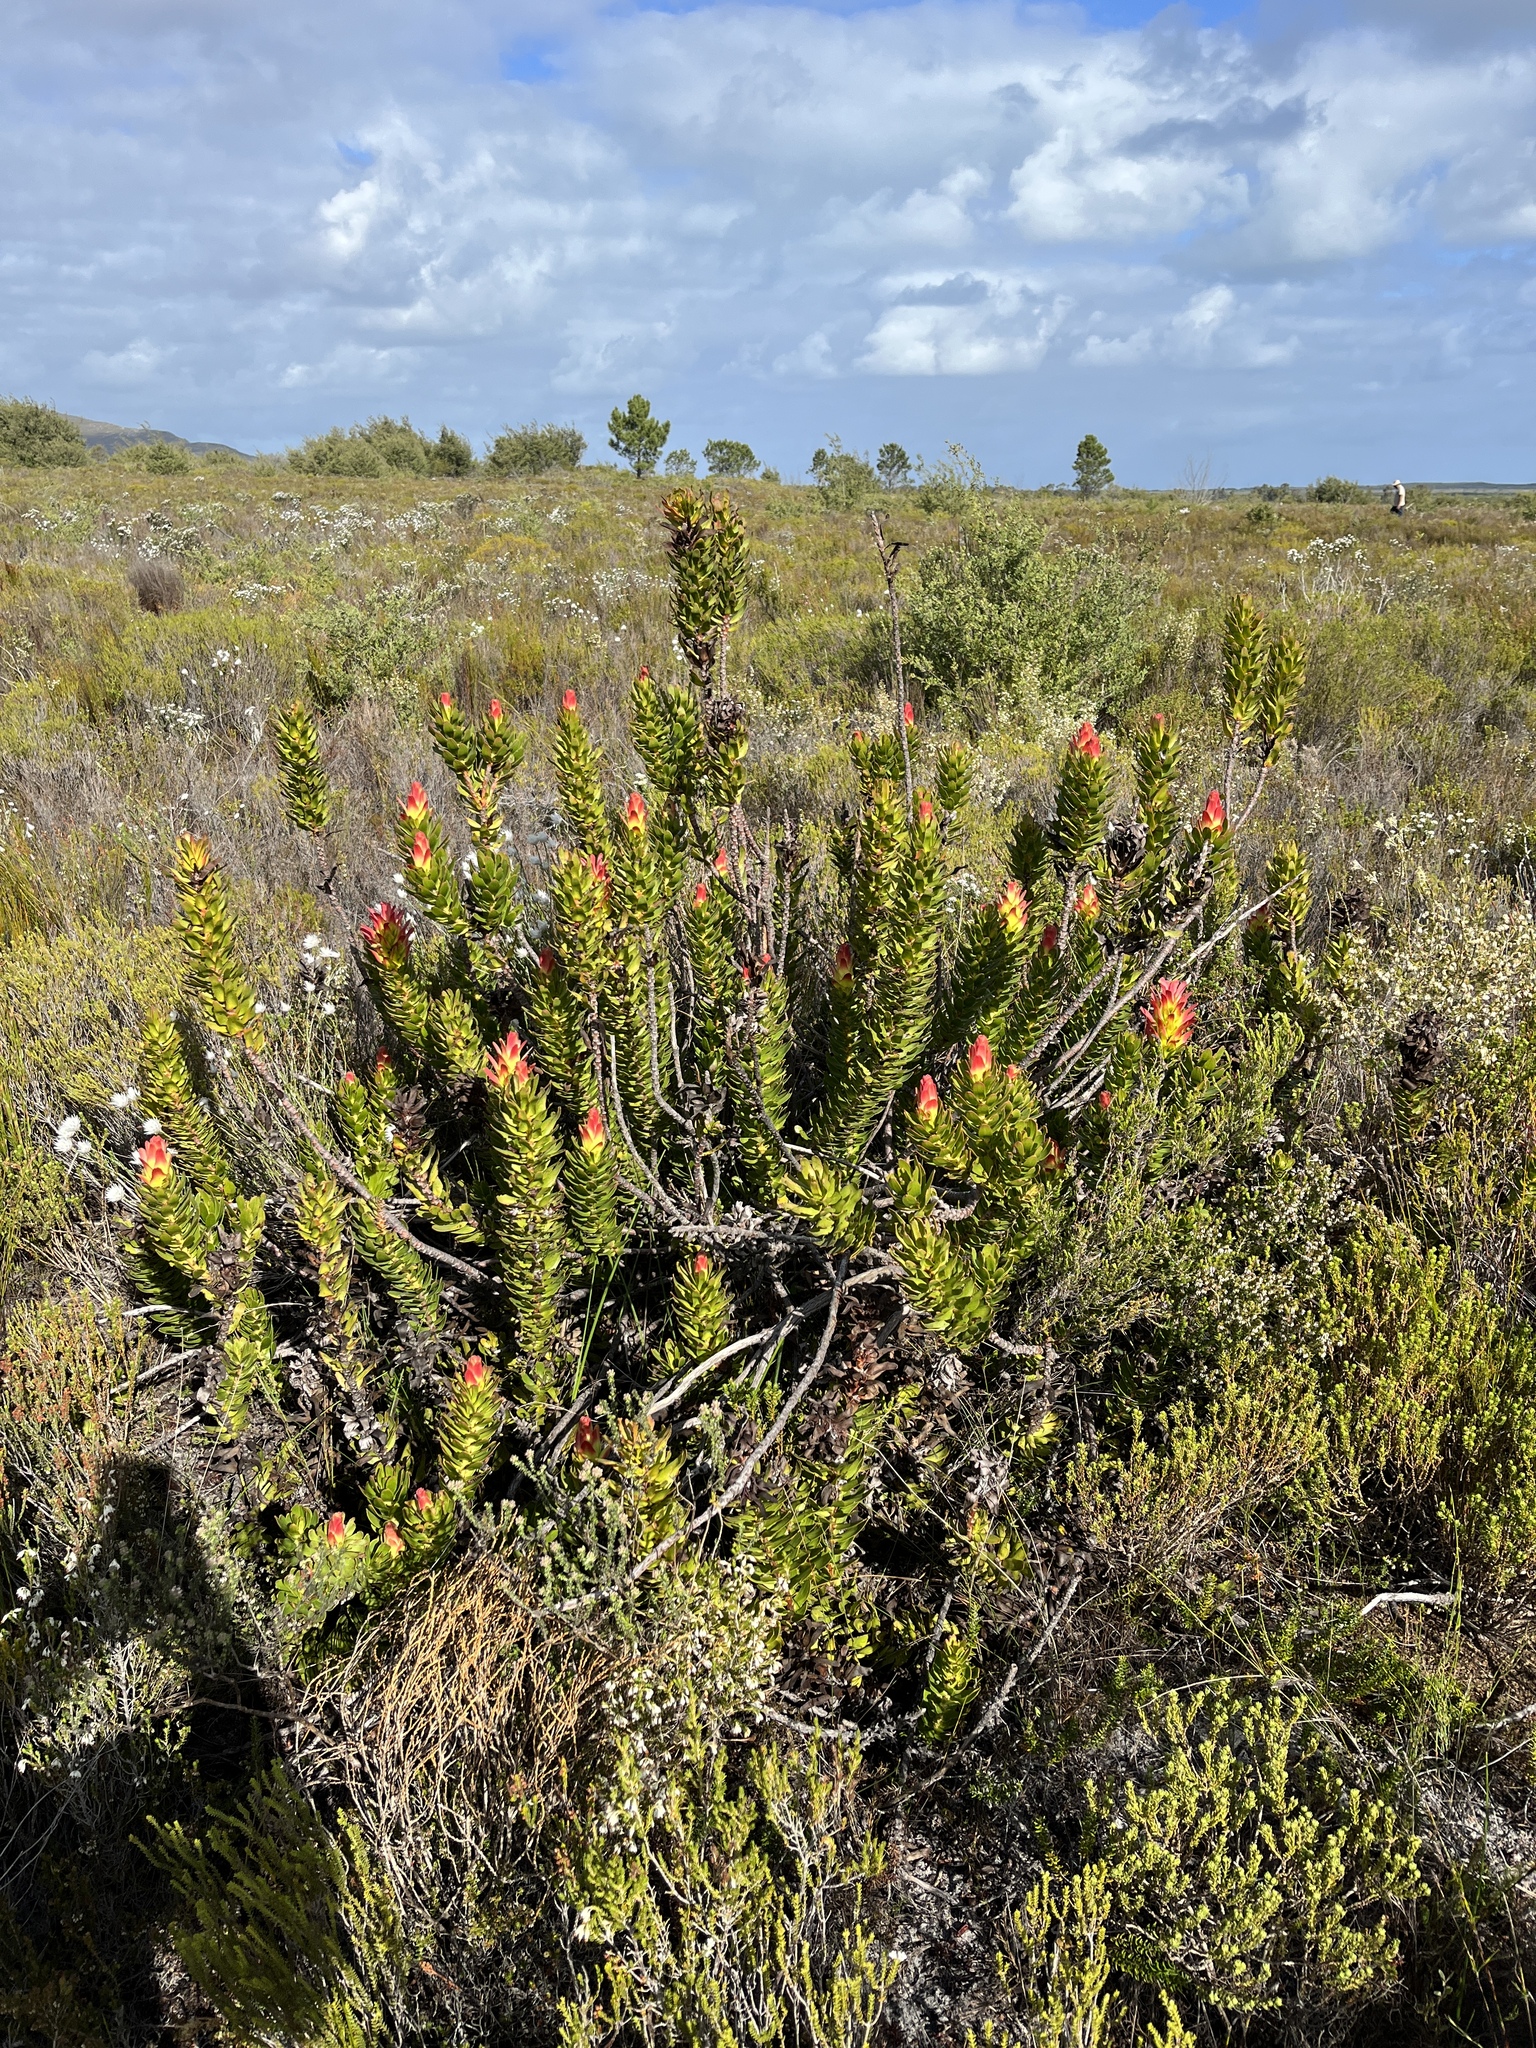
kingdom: Plantae
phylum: Tracheophyta
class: Magnoliopsida
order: Proteales
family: Proteaceae
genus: Mimetes
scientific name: Mimetes cucullatus
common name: Common pagoda
